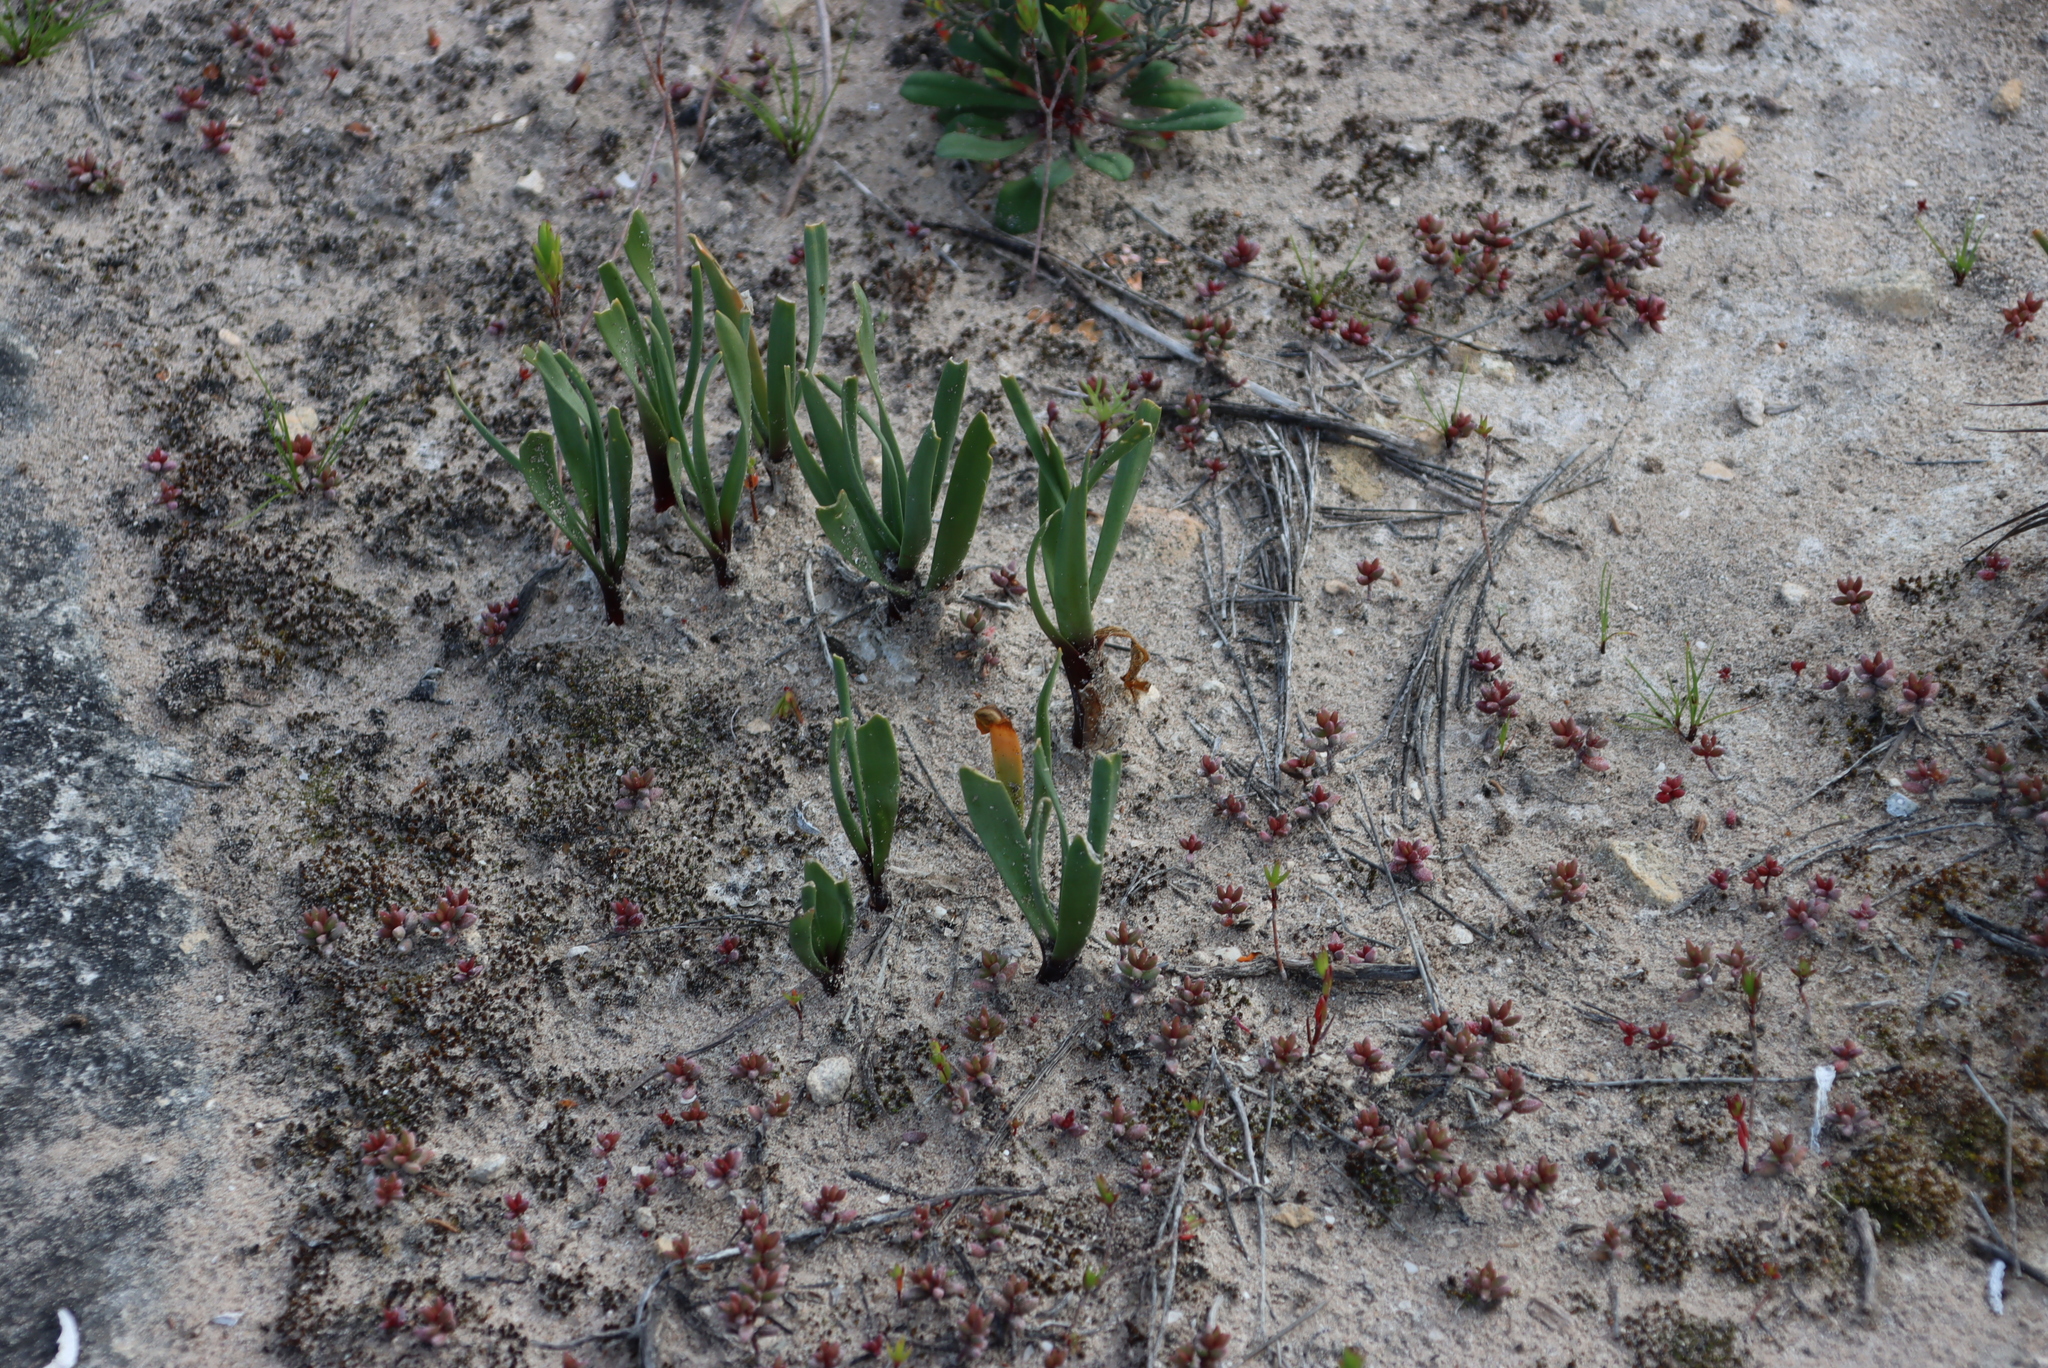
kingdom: Plantae
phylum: Tracheophyta
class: Liliopsida
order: Asparagales
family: Asparagaceae
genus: Fusifilum
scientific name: Fusifilum physodes
